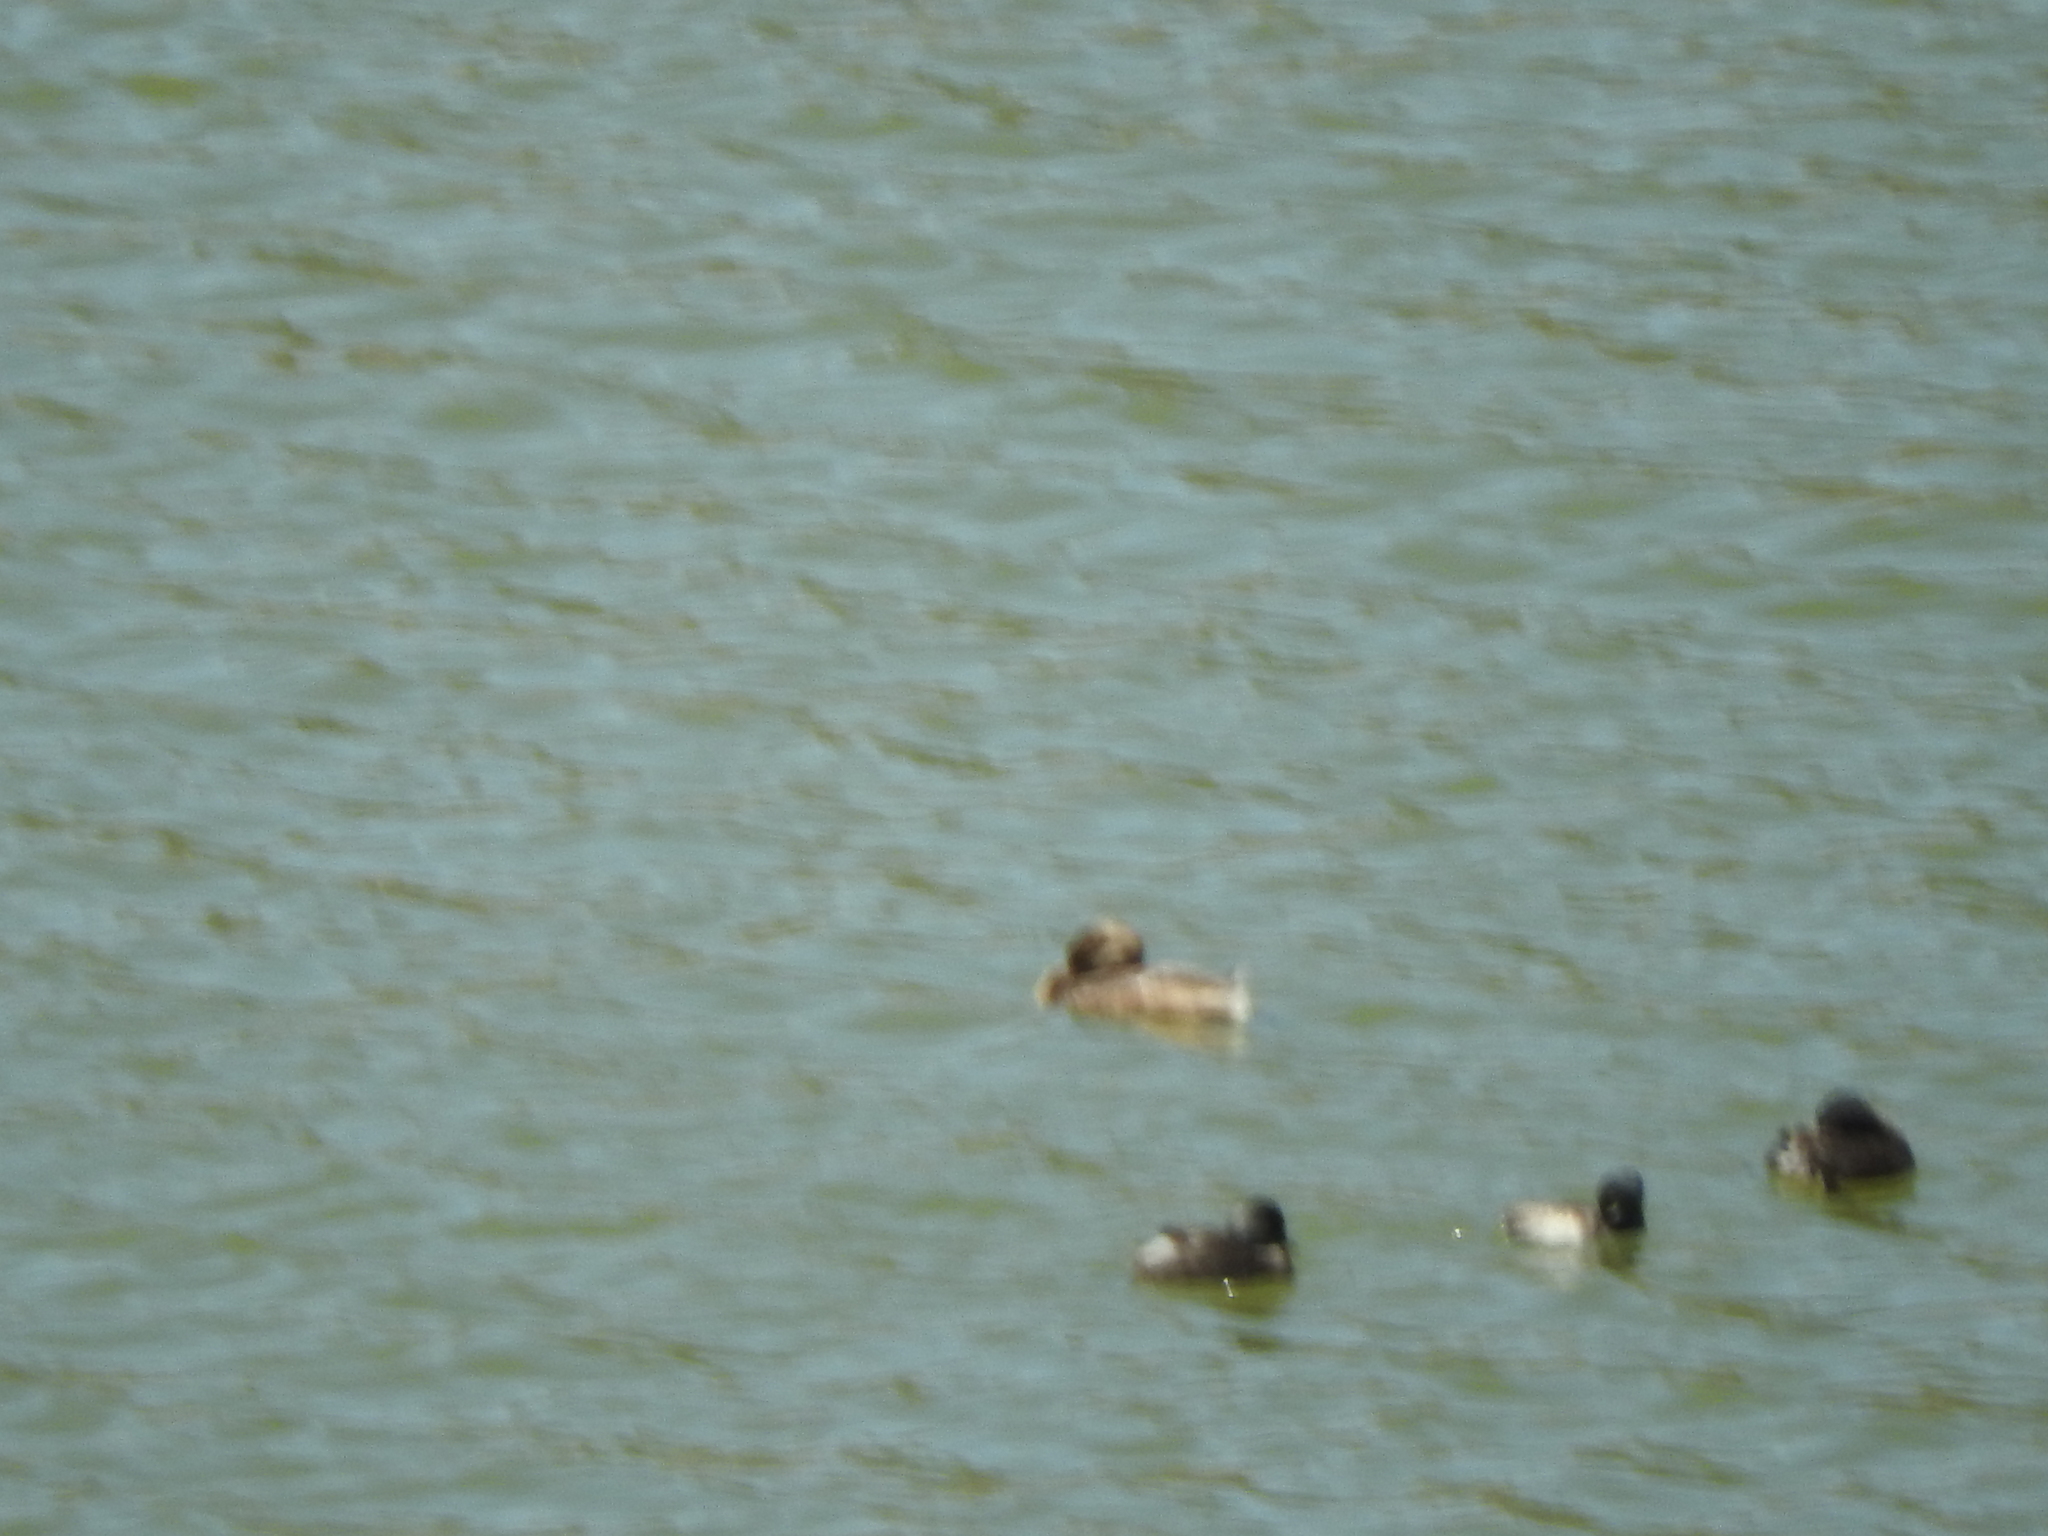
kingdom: Animalia
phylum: Chordata
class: Aves
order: Podicipediformes
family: Podicipedidae
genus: Podilymbus
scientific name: Podilymbus podiceps
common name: Pied-billed grebe
